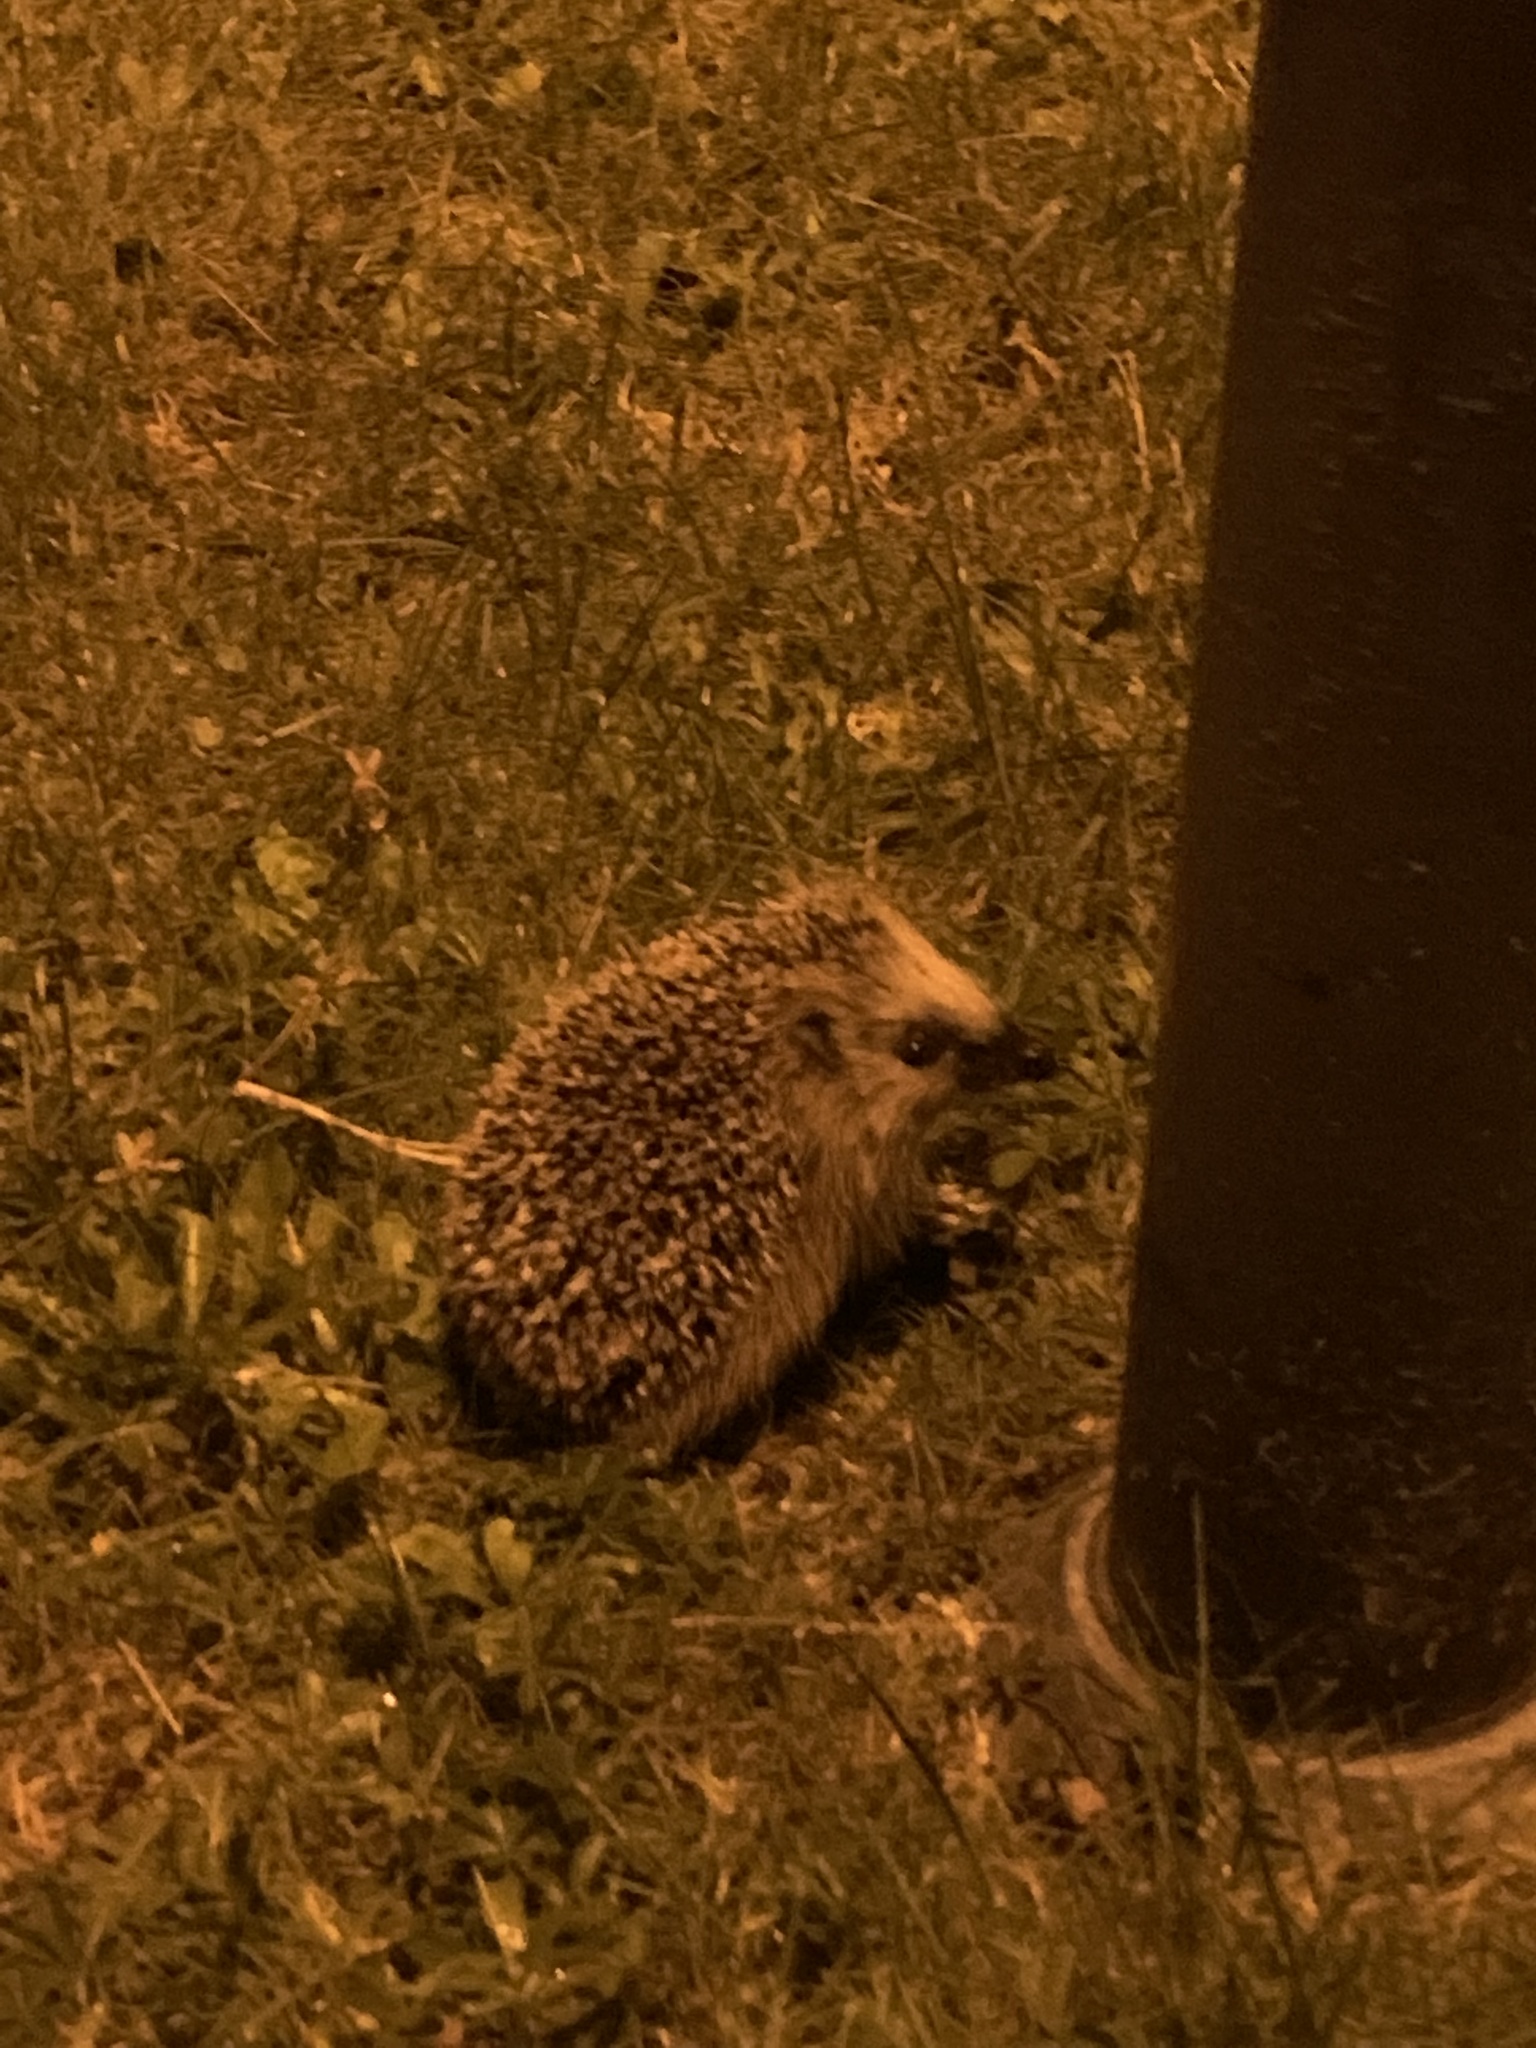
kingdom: Animalia
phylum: Chordata
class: Mammalia
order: Erinaceomorpha
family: Erinaceidae
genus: Erinaceus
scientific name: Erinaceus europaeus
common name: West european hedgehog
